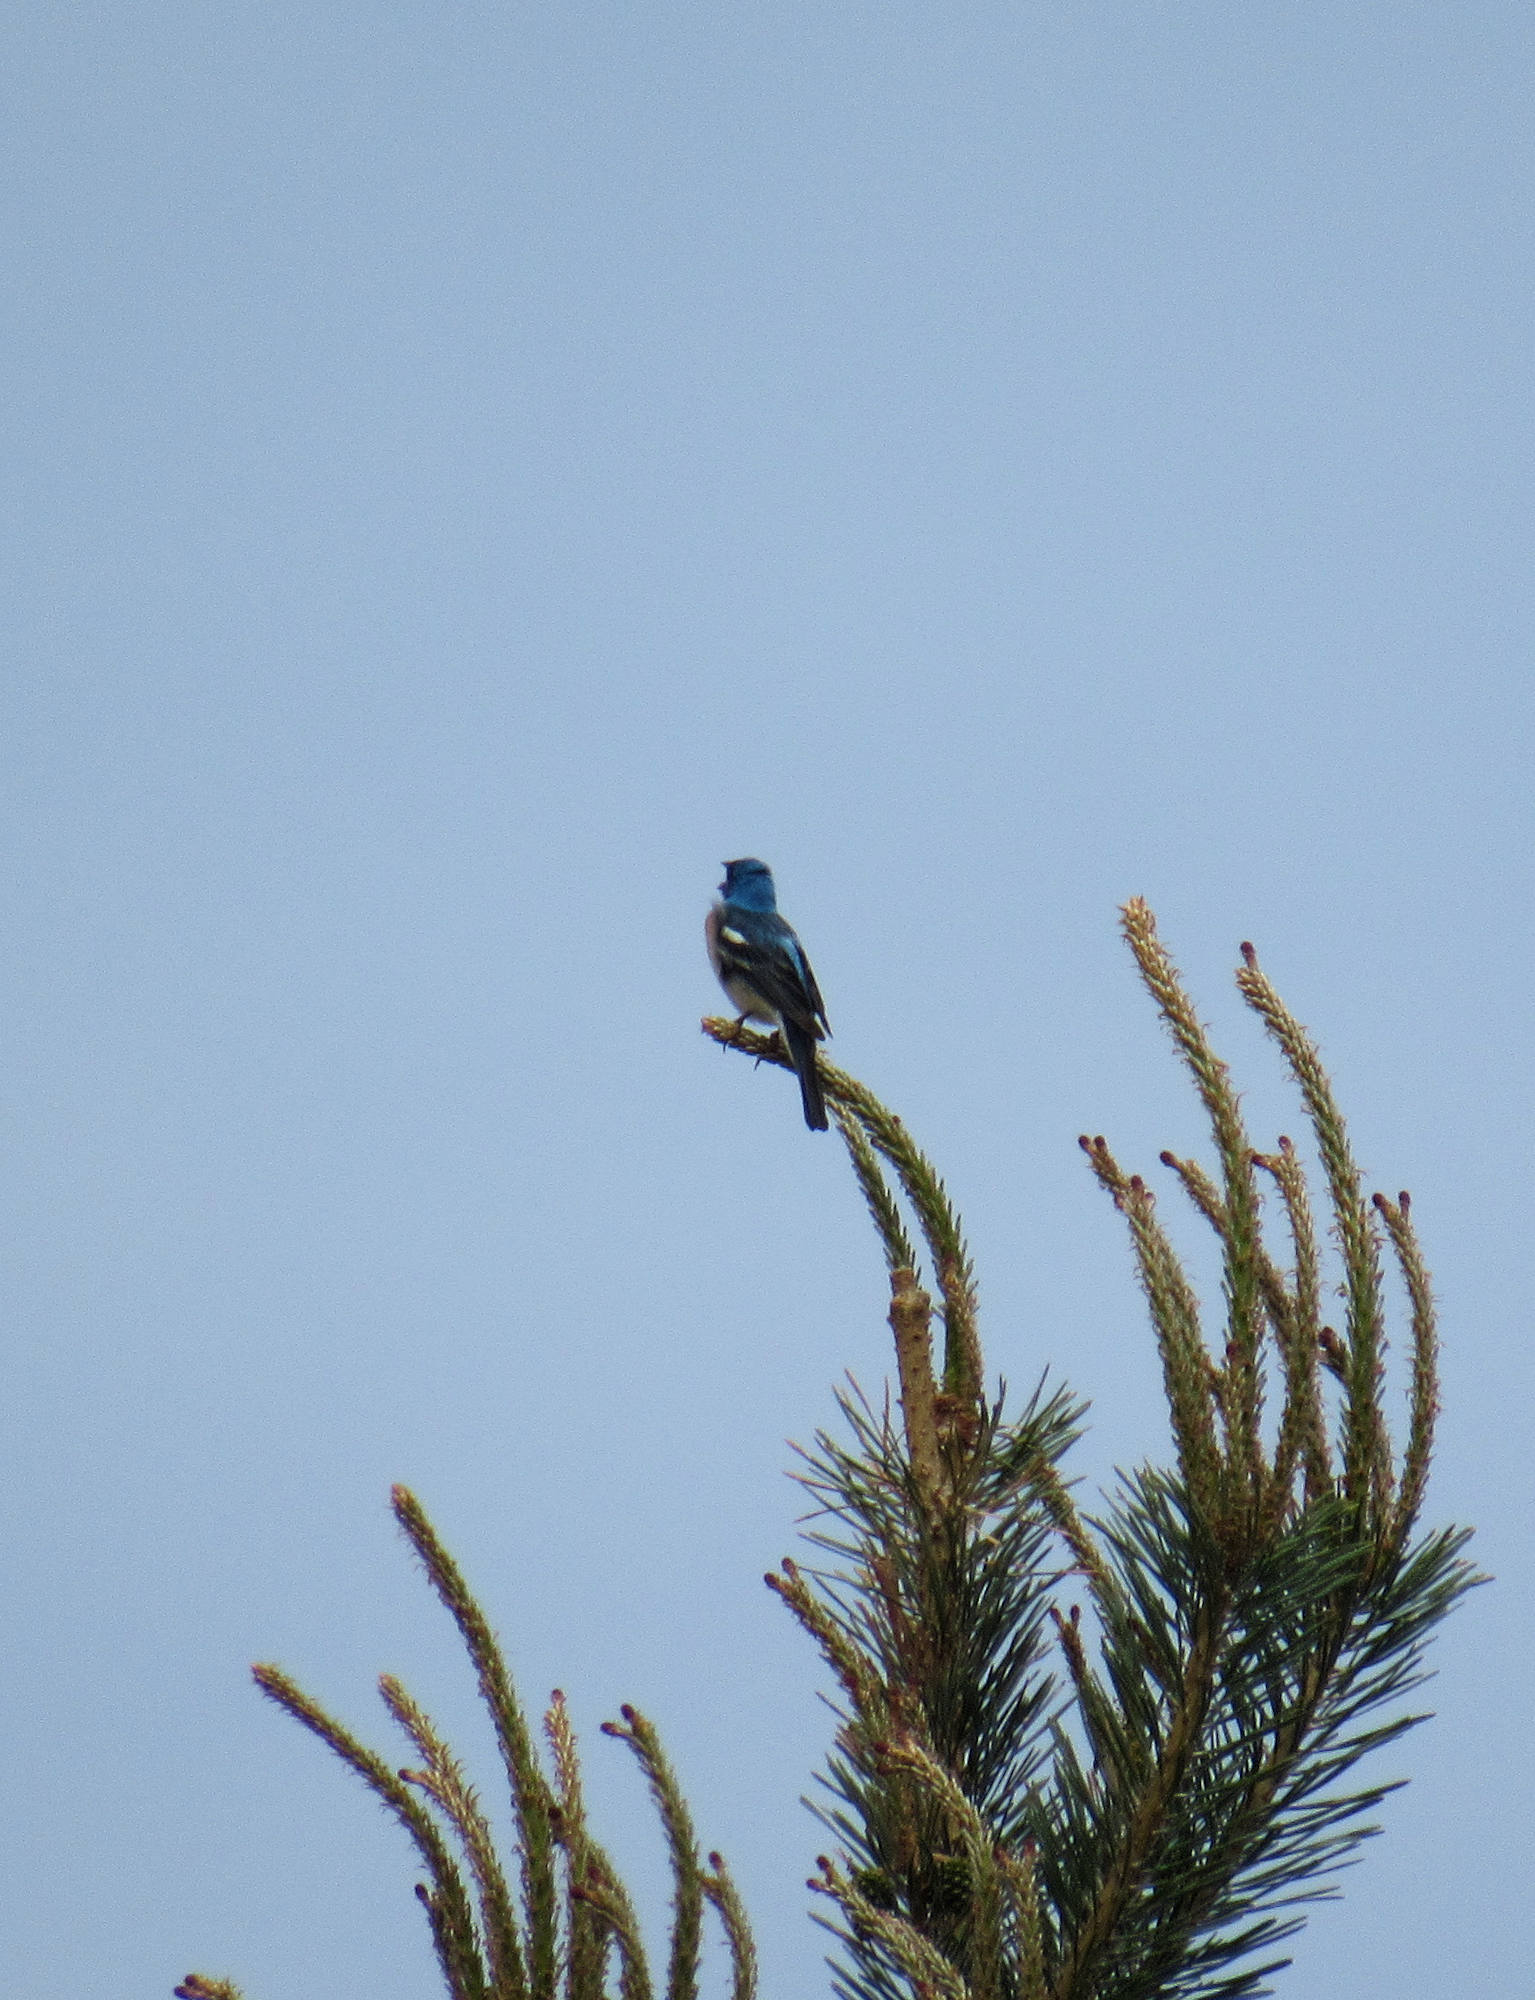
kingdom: Animalia
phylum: Chordata
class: Aves
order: Passeriformes
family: Cardinalidae
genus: Passerina
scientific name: Passerina amoena
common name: Lazuli bunting
